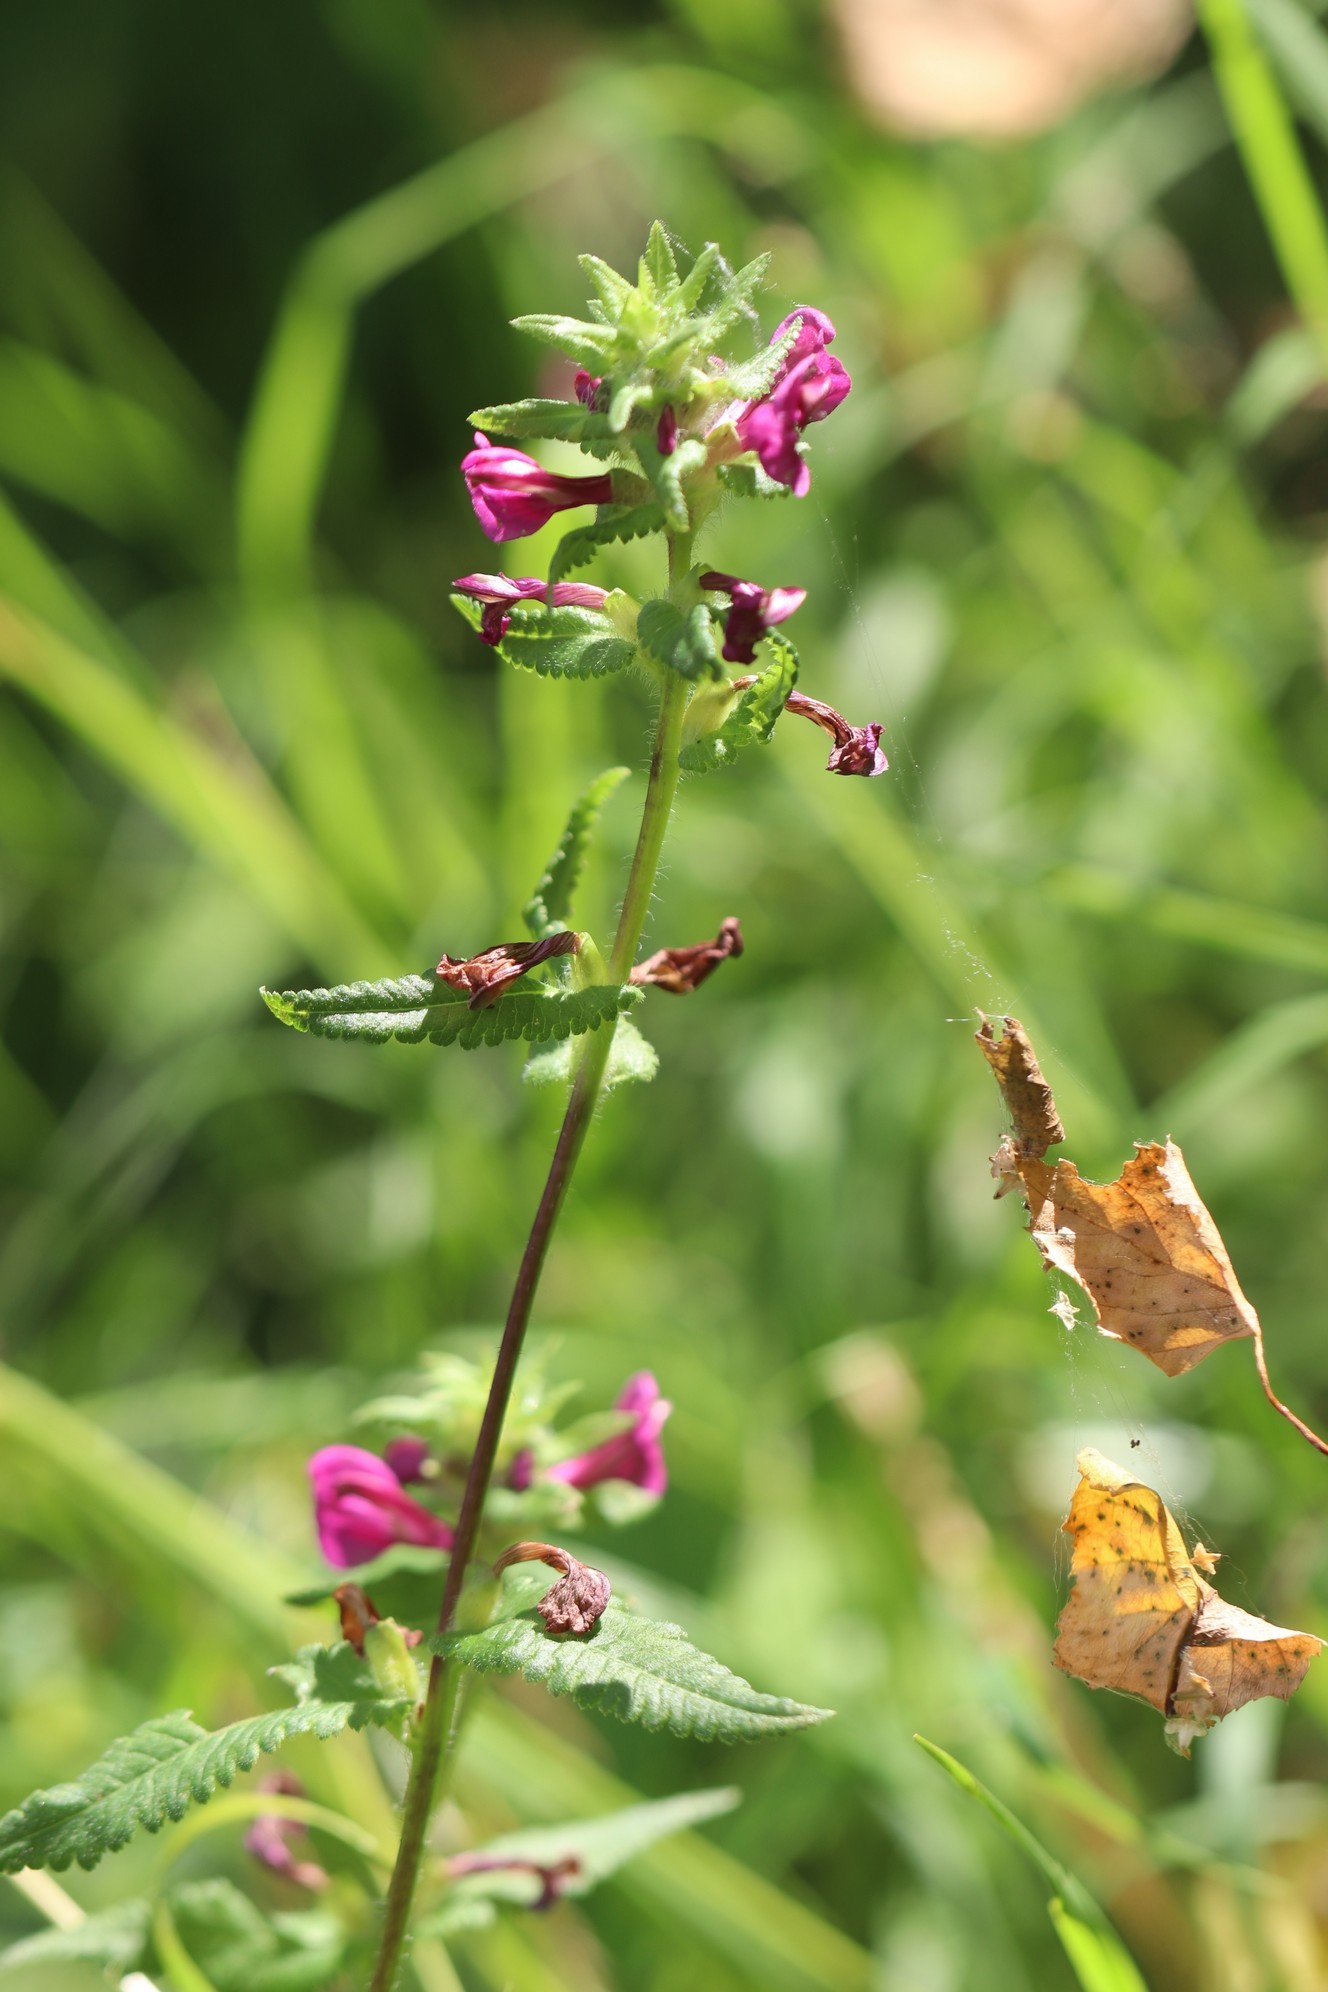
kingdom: Plantae
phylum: Tracheophyta
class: Magnoliopsida
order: Lamiales
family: Orobanchaceae
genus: Pedicularis
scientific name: Pedicularis resupinata
